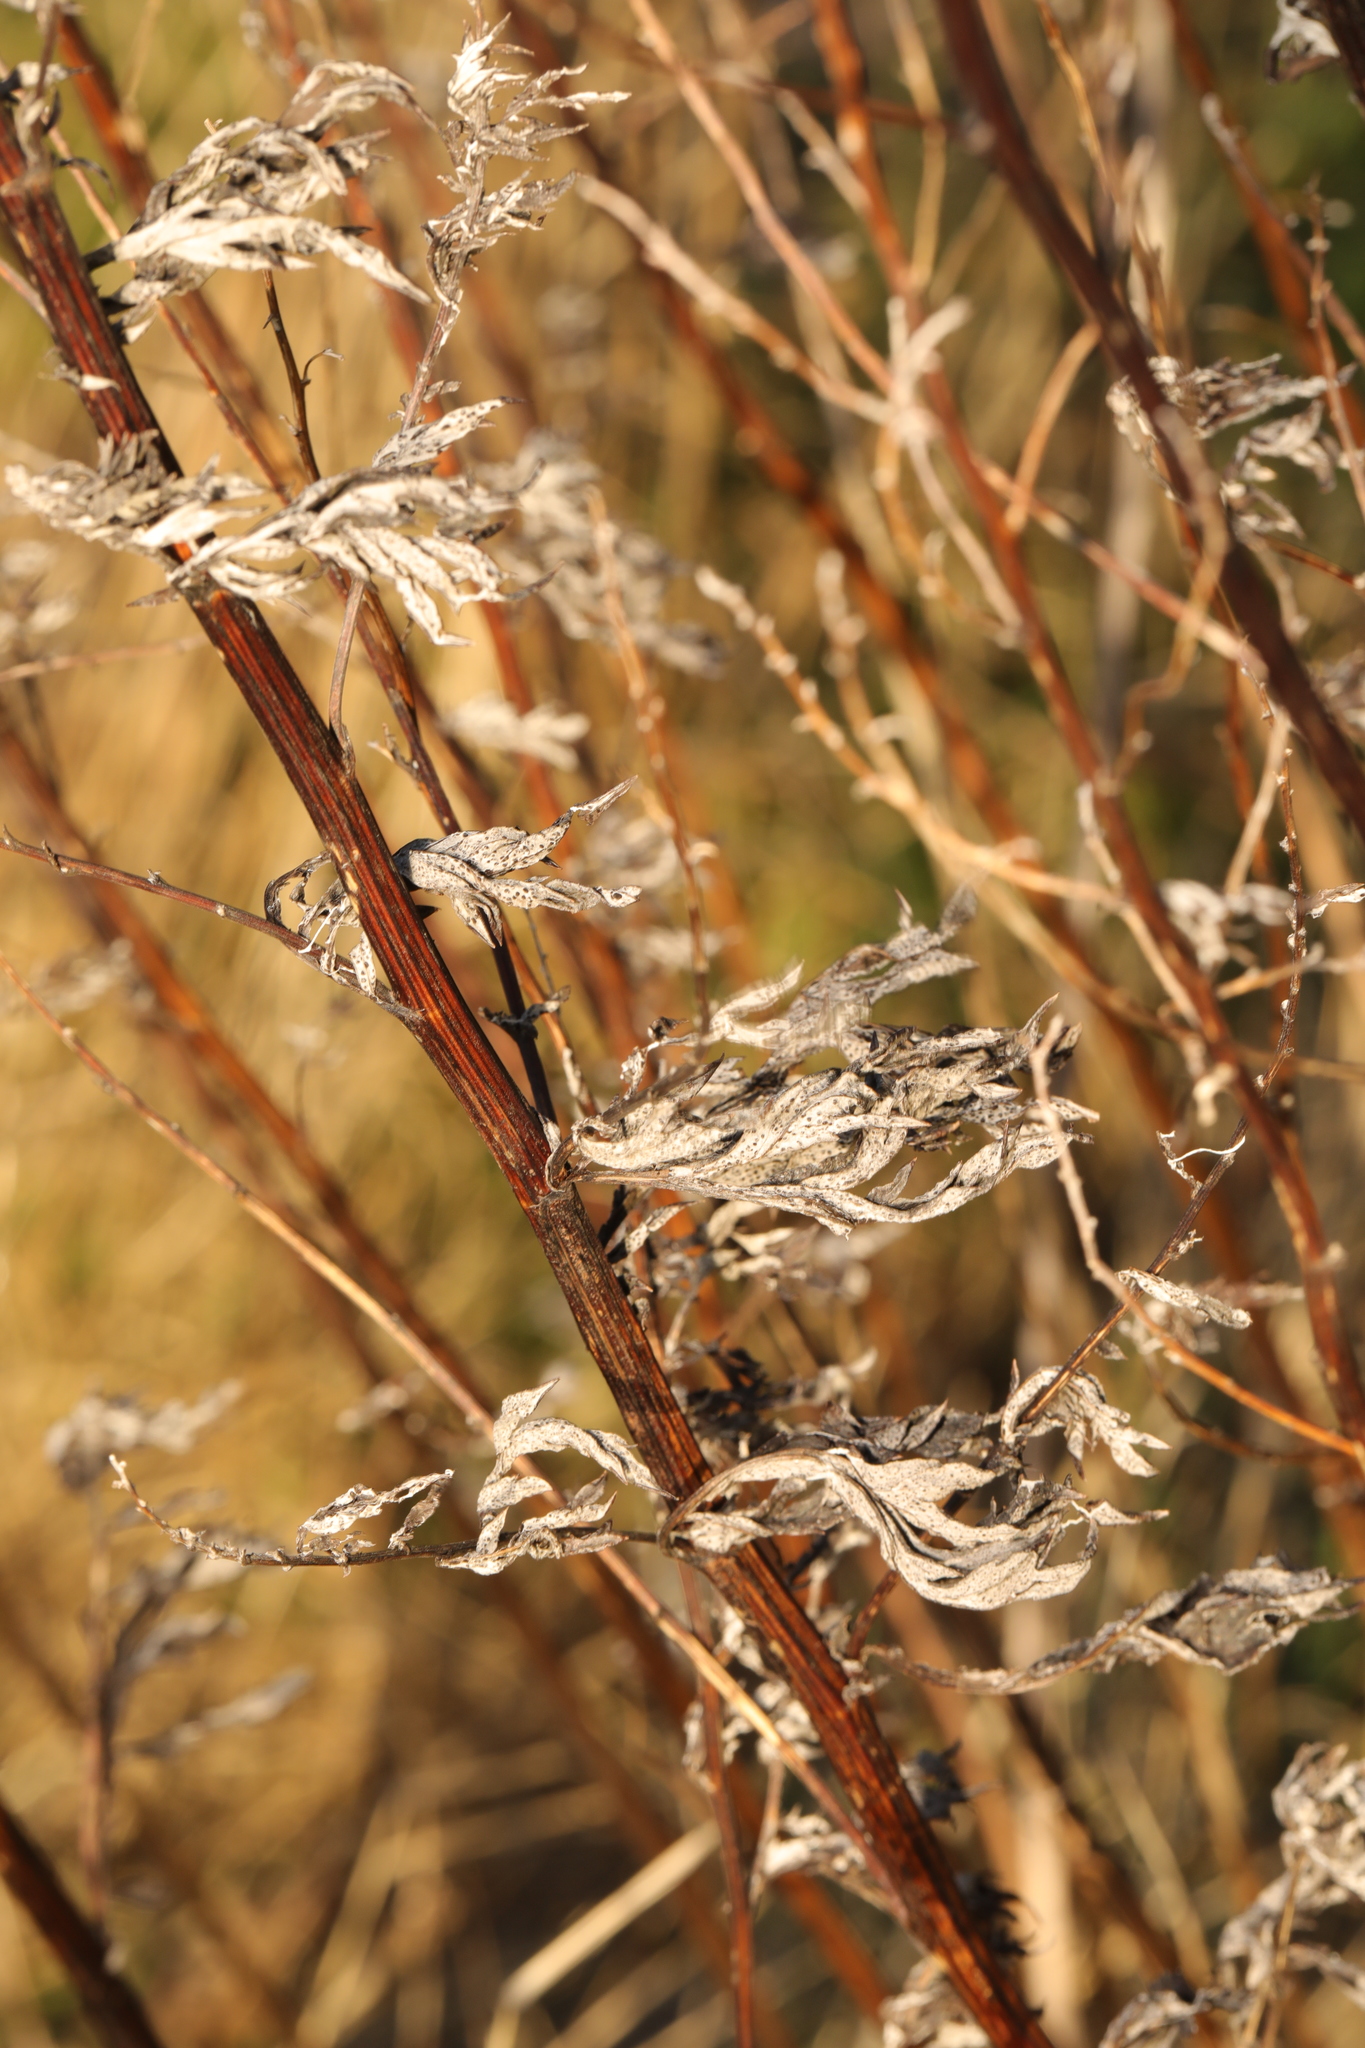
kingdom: Plantae
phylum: Tracheophyta
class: Magnoliopsida
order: Asterales
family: Asteraceae
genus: Artemisia
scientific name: Artemisia vulgaris
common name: Mugwort
